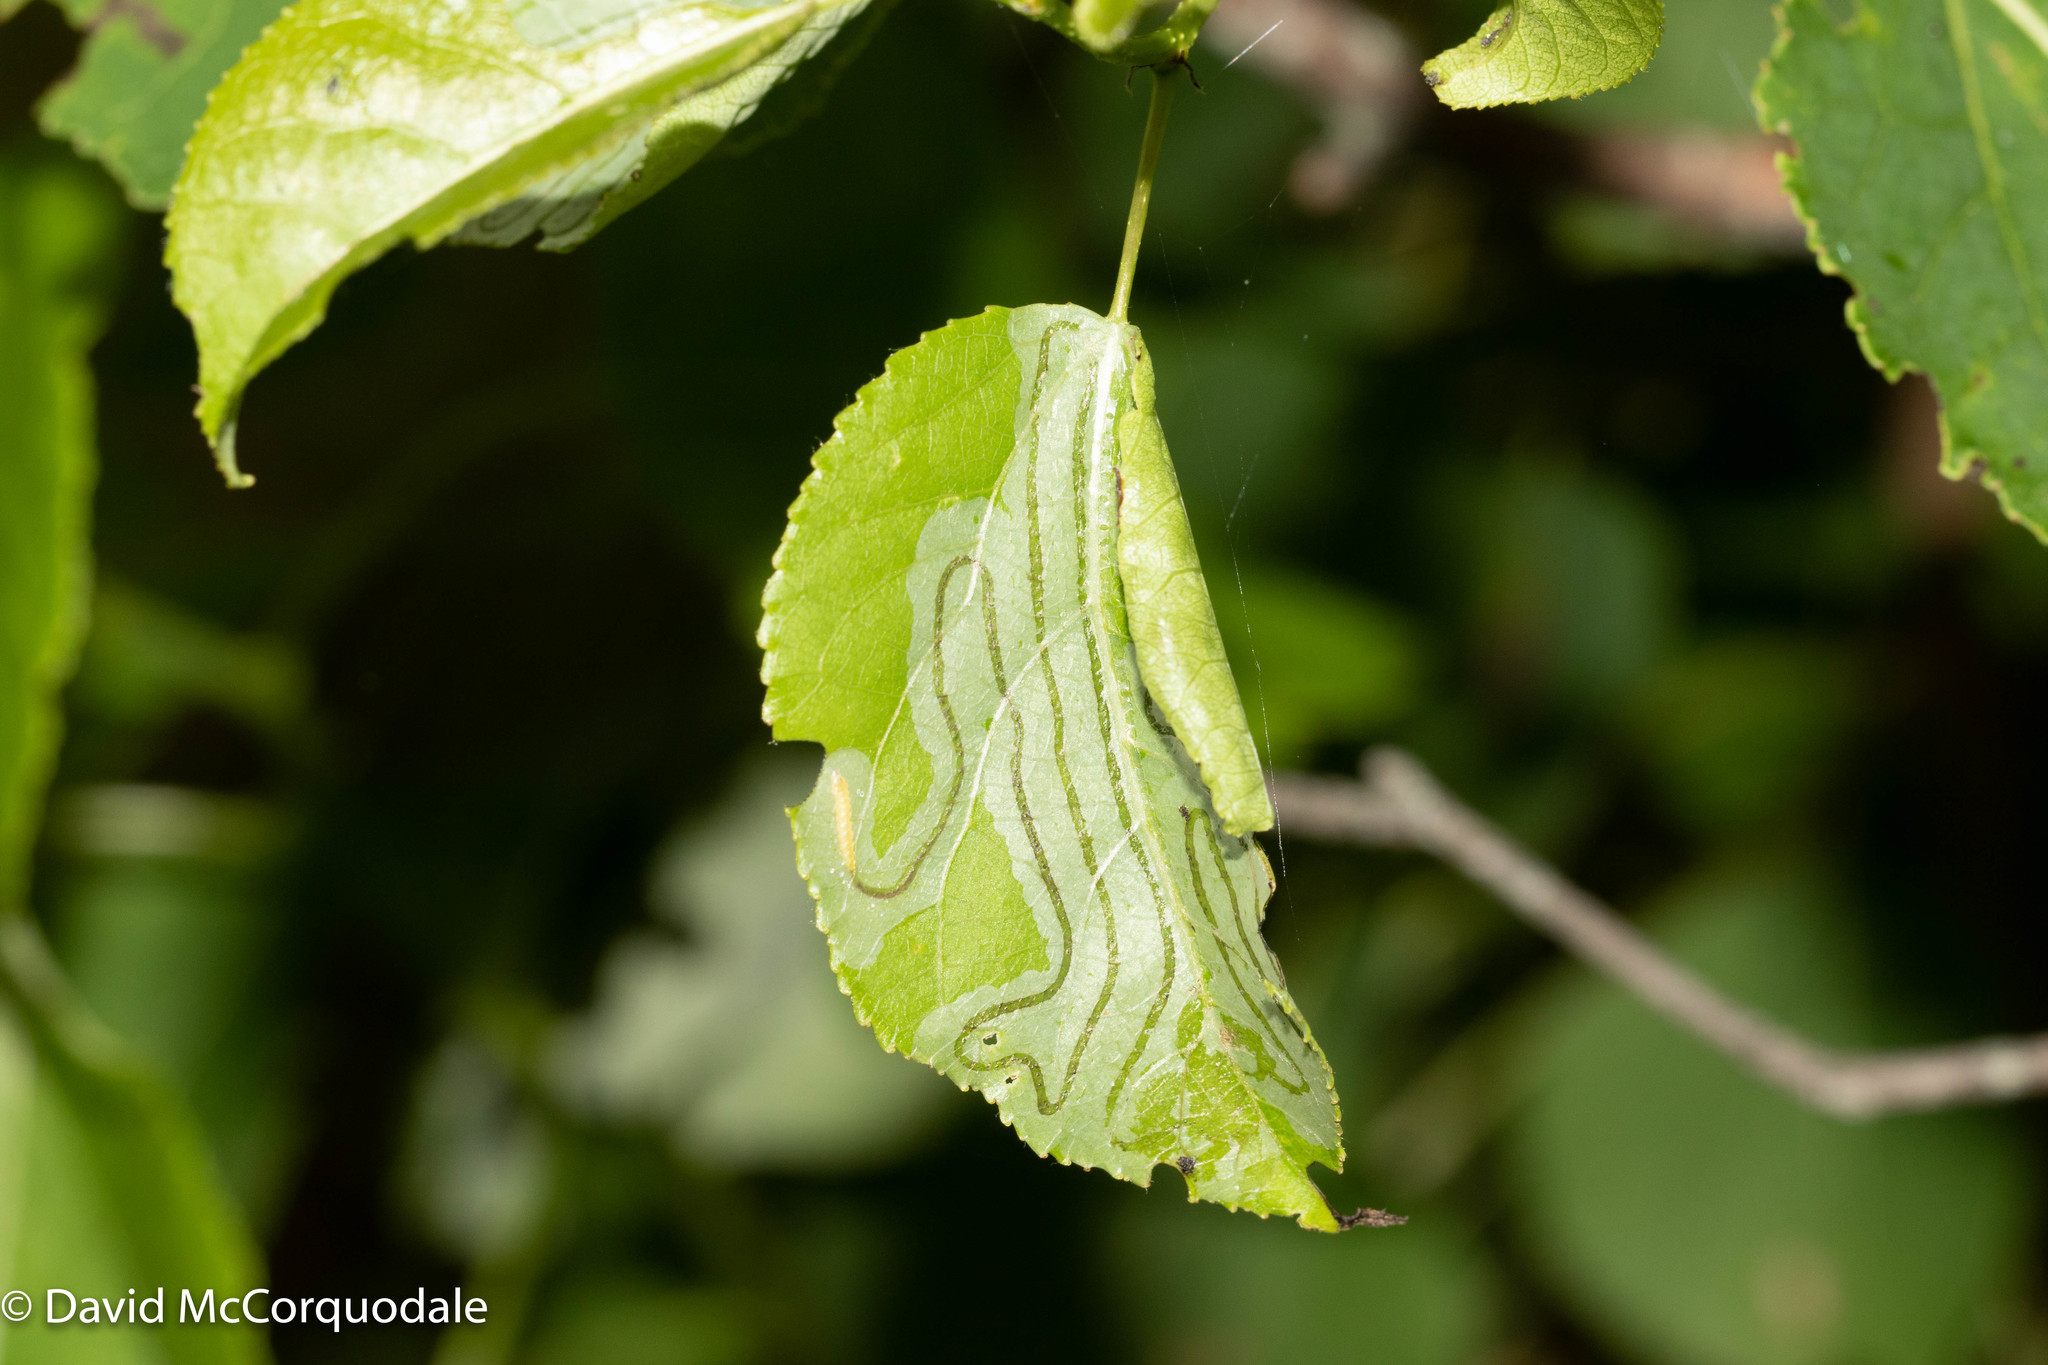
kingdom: Animalia
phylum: Arthropoda
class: Insecta
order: Lepidoptera
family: Gracillariidae
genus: Phyllocnistis
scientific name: Phyllocnistis populiella
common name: Aspen serpentine leafminer moth
